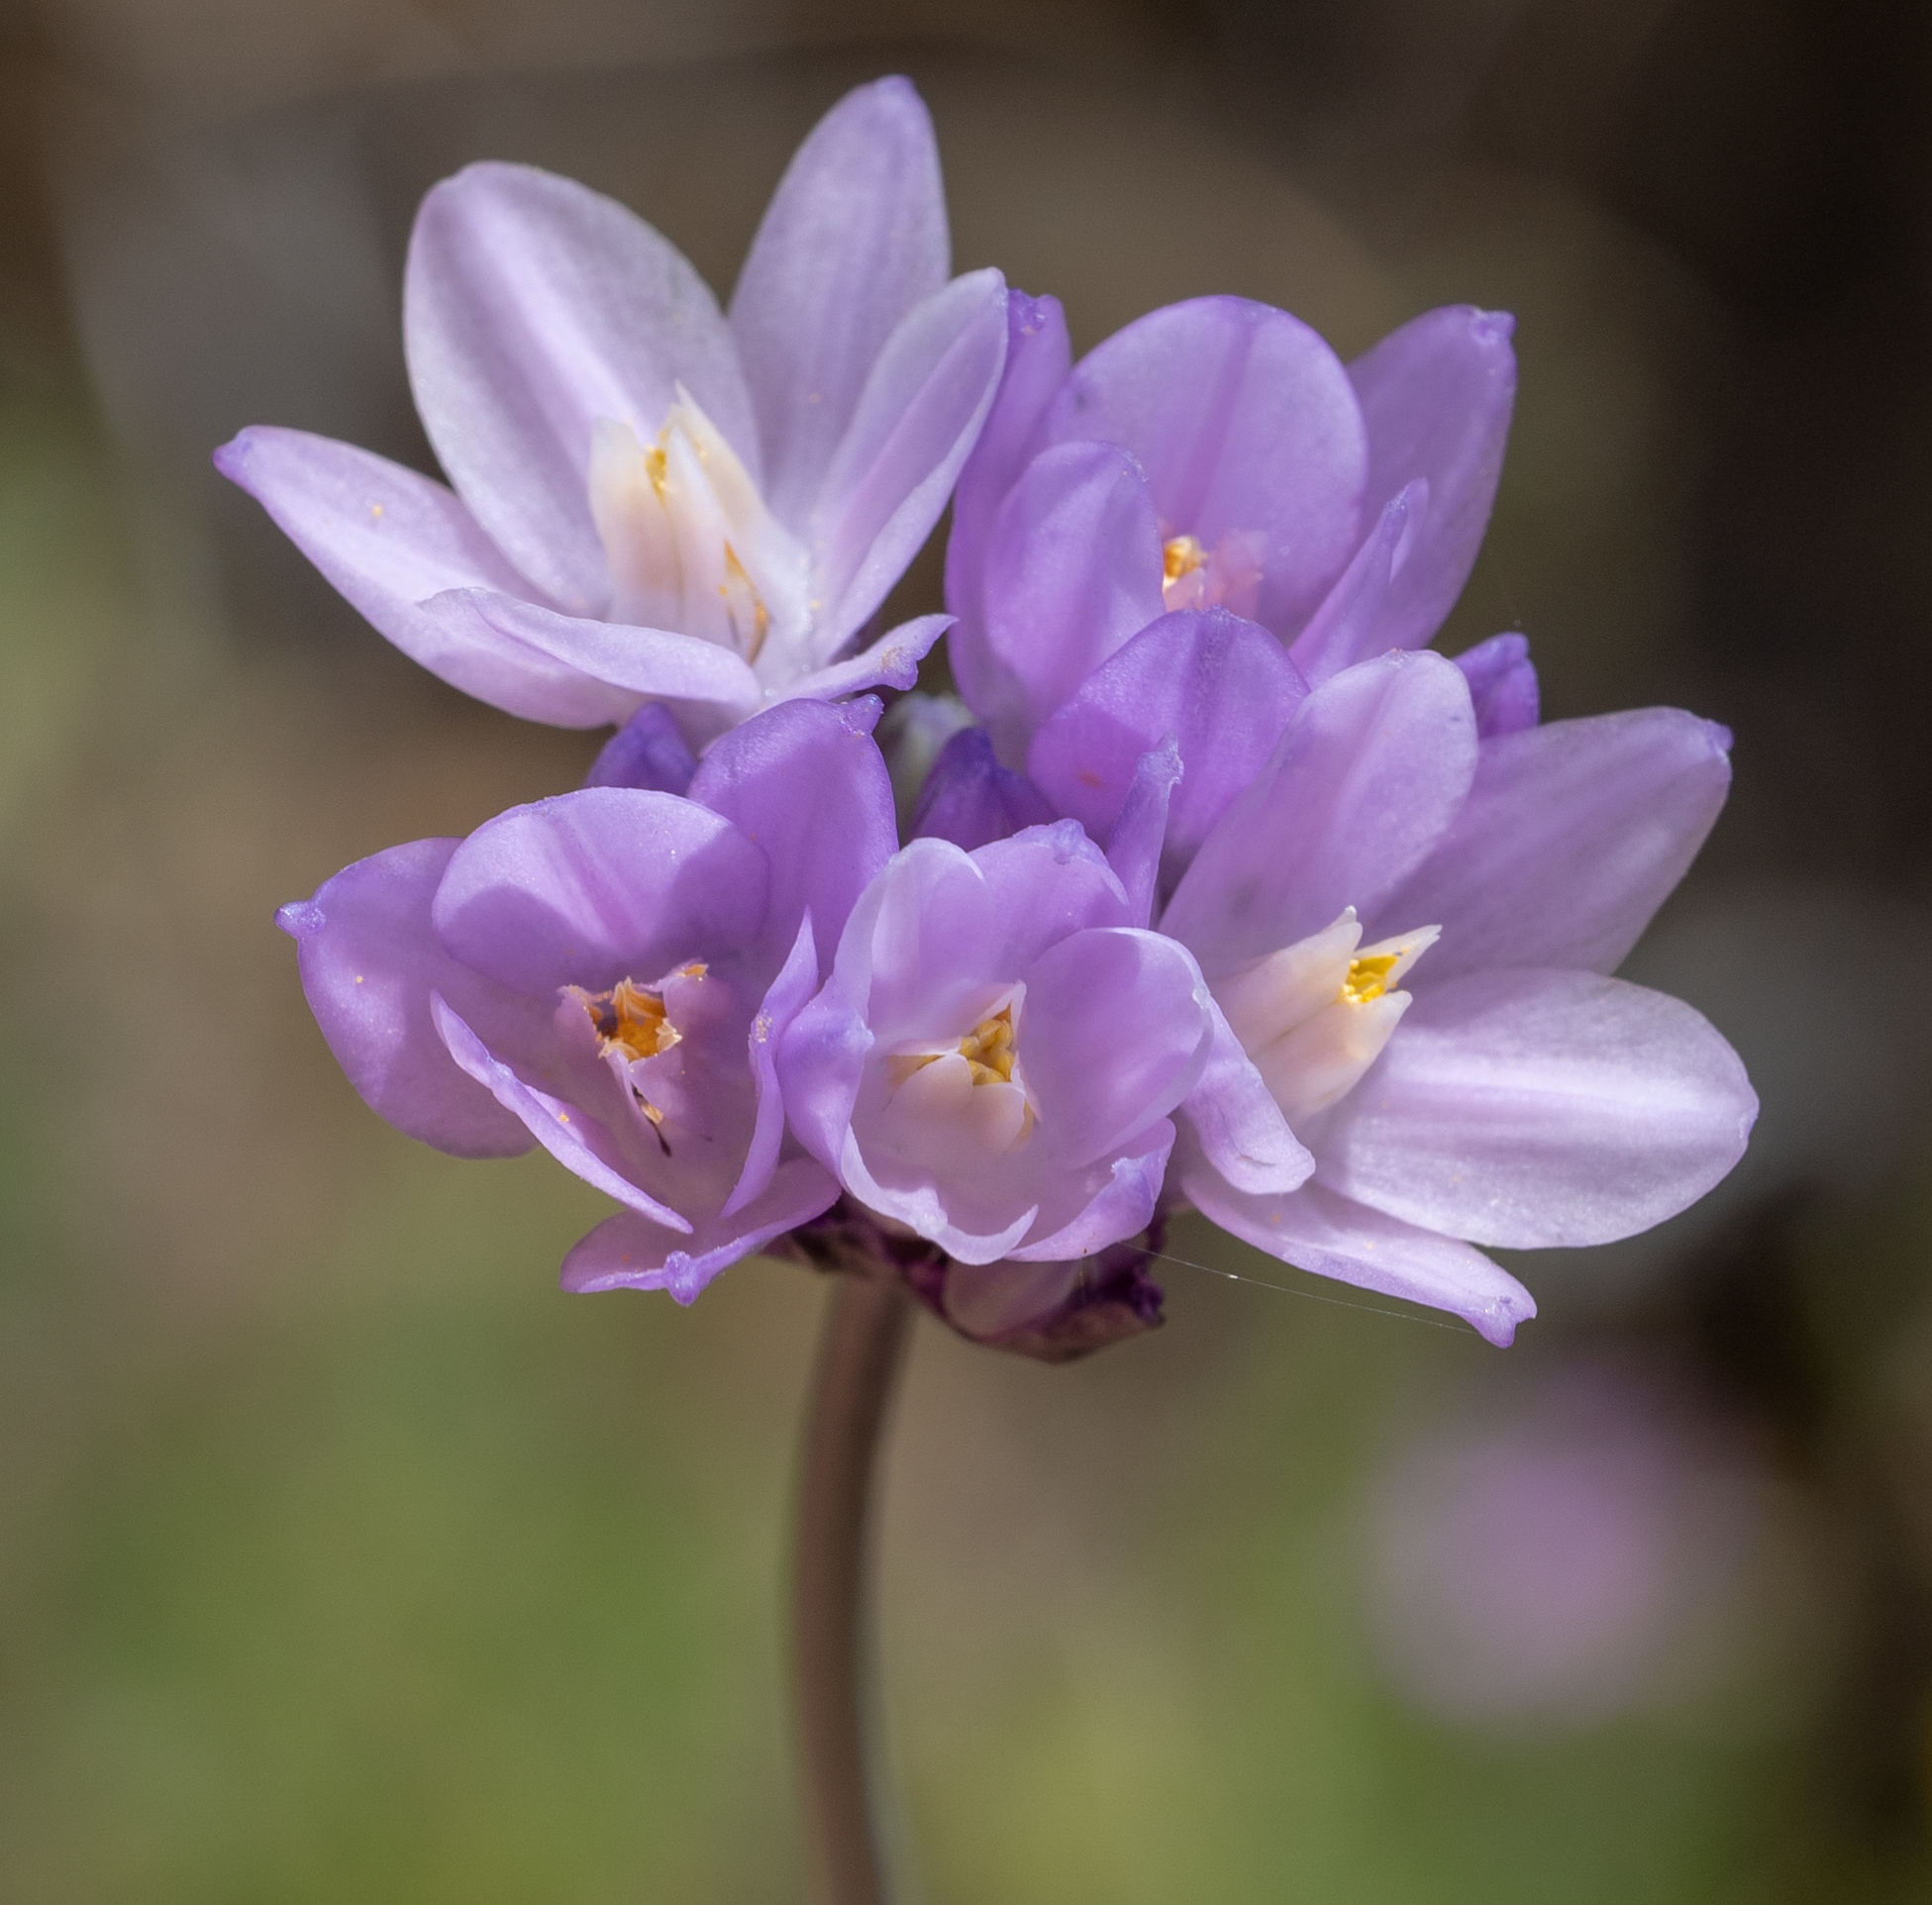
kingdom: Plantae
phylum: Tracheophyta
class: Liliopsida
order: Asparagales
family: Asparagaceae
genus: Dipterostemon
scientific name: Dipterostemon capitatus
